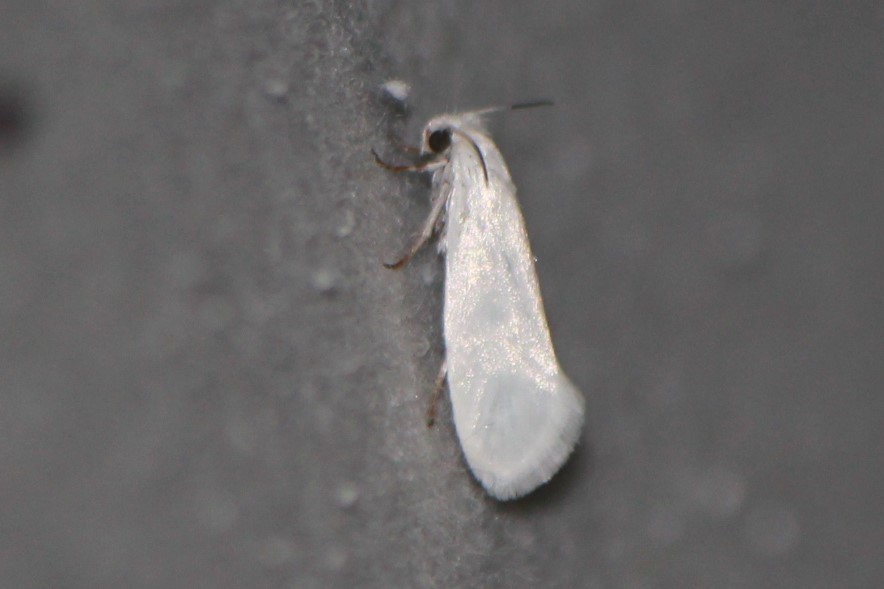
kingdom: Animalia
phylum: Arthropoda
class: Insecta
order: Lepidoptera
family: Prodoxidae
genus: Tegeticula
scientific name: Tegeticula yuccasella
